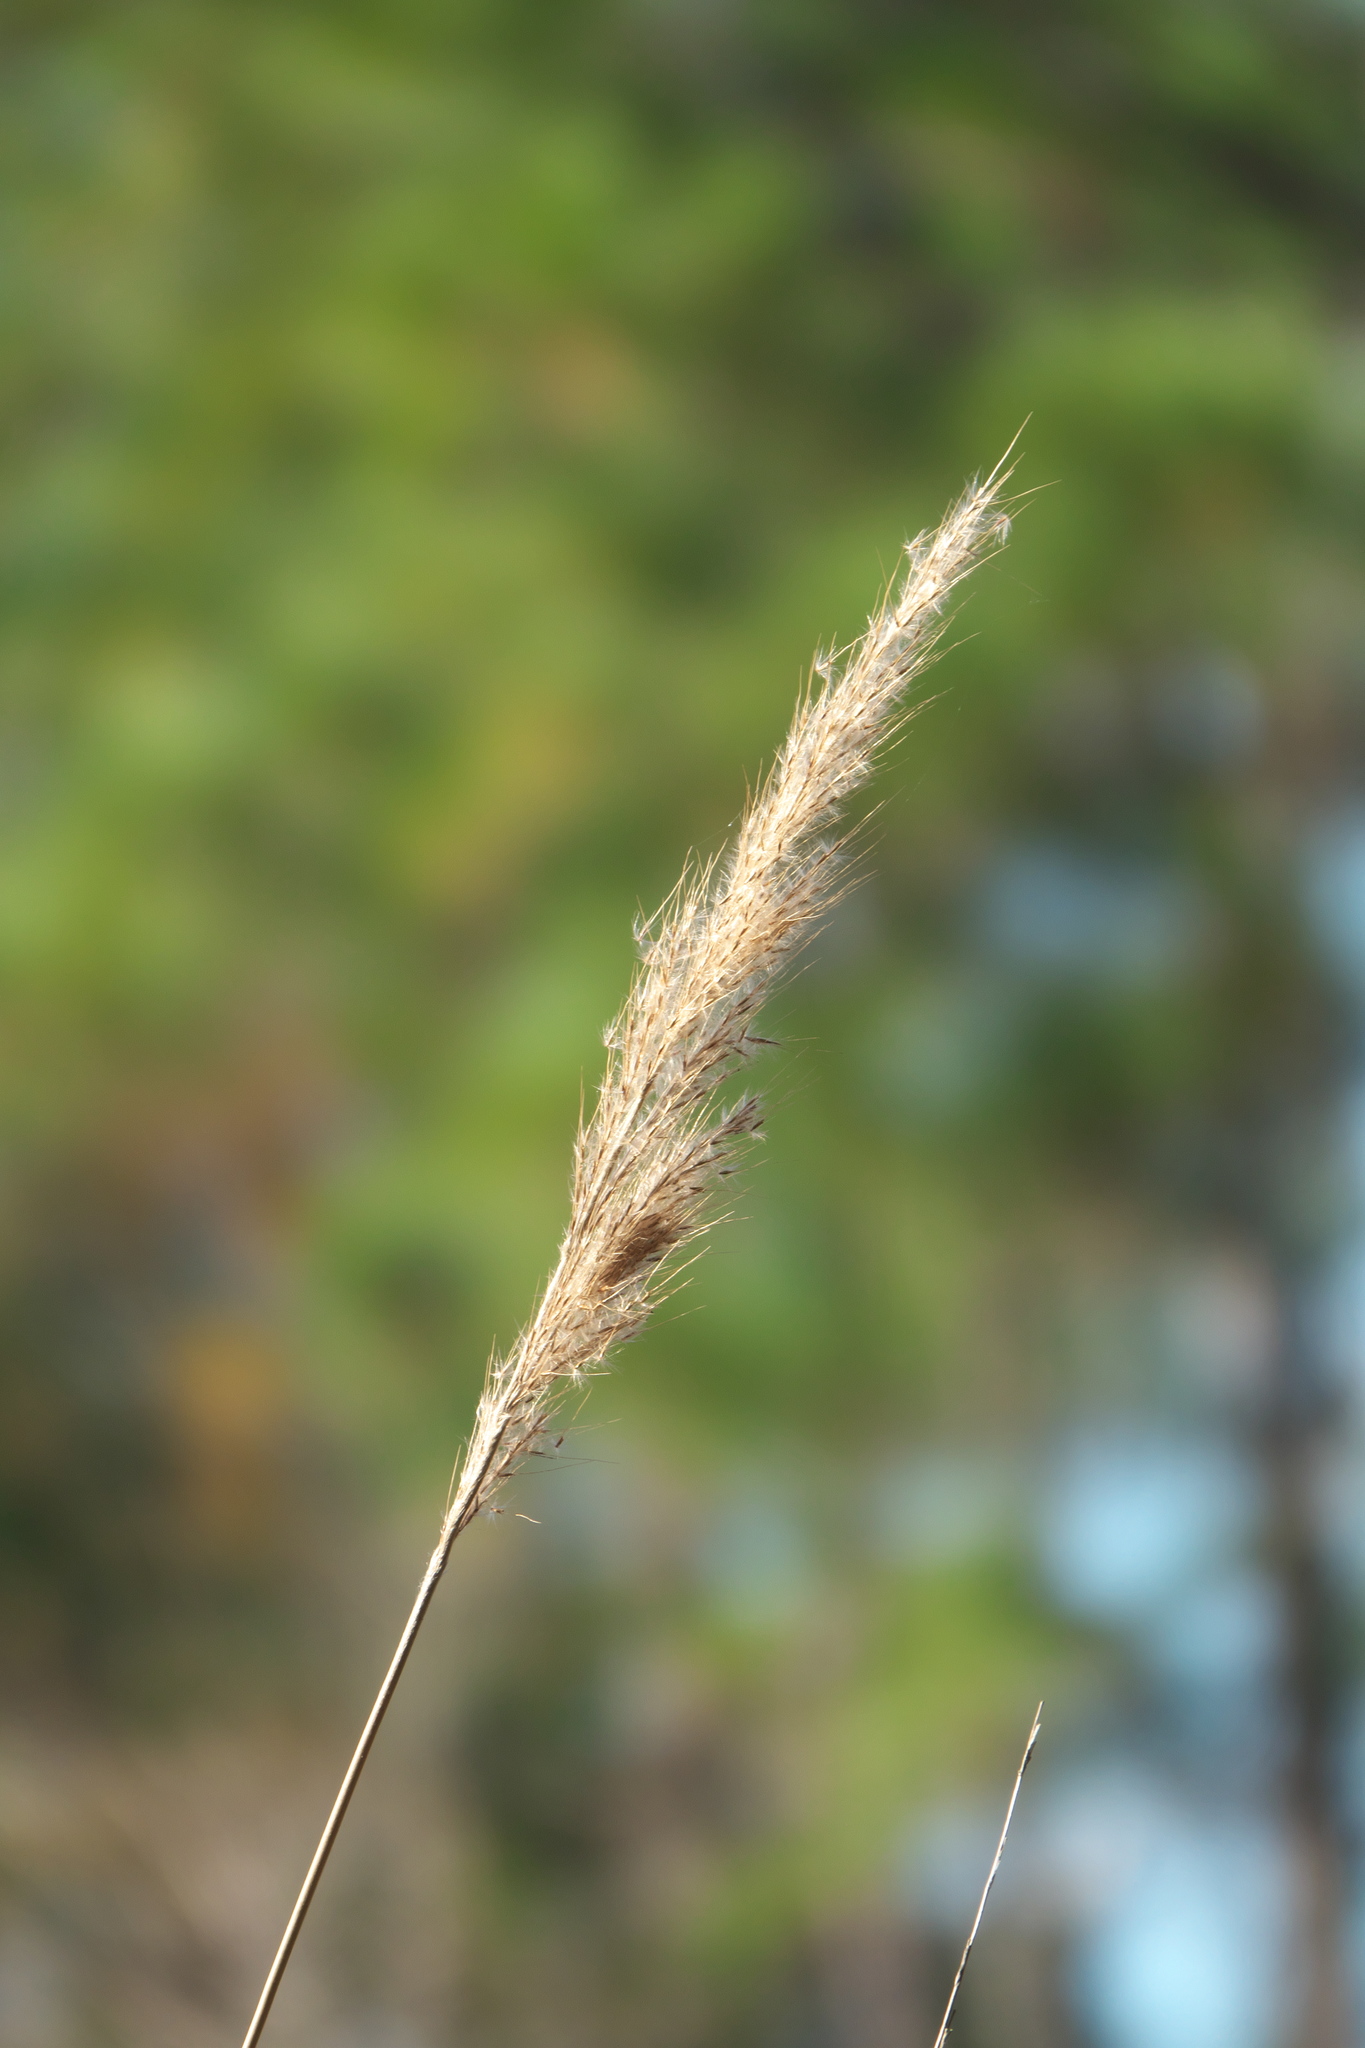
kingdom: Plantae
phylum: Tracheophyta
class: Liliopsida
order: Poales
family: Poaceae
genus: Erianthus
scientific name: Erianthus giganteus
